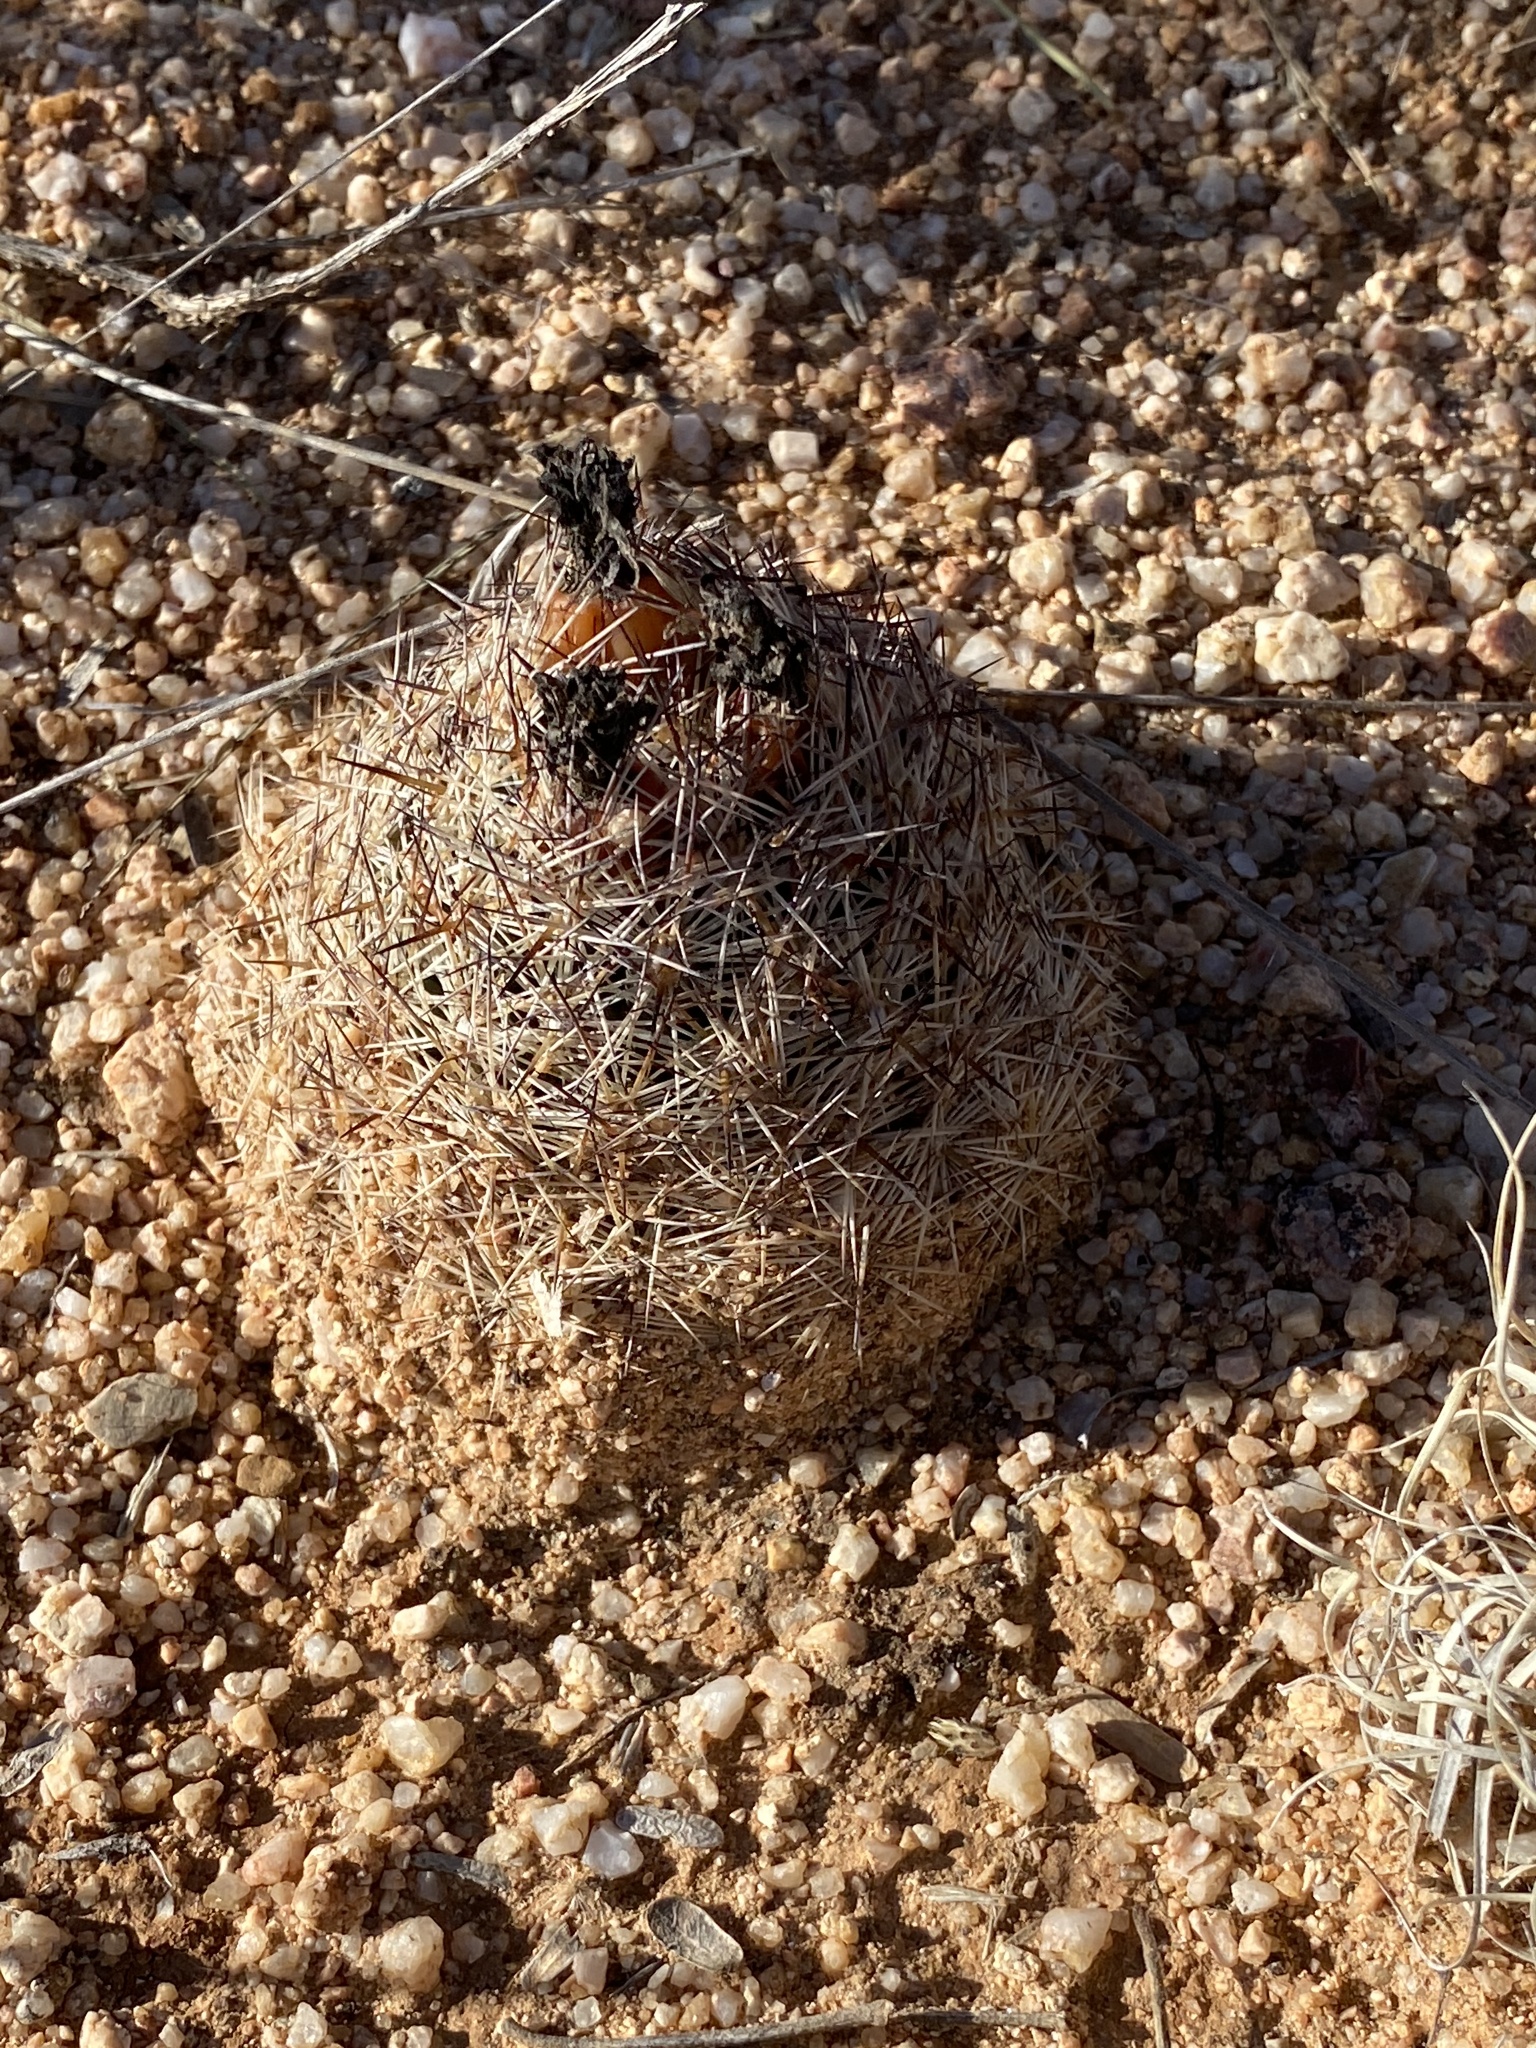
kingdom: Plantae
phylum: Tracheophyta
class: Magnoliopsida
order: Caryophyllales
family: Cactaceae
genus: Pelecyphora
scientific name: Pelecyphora vivipara
